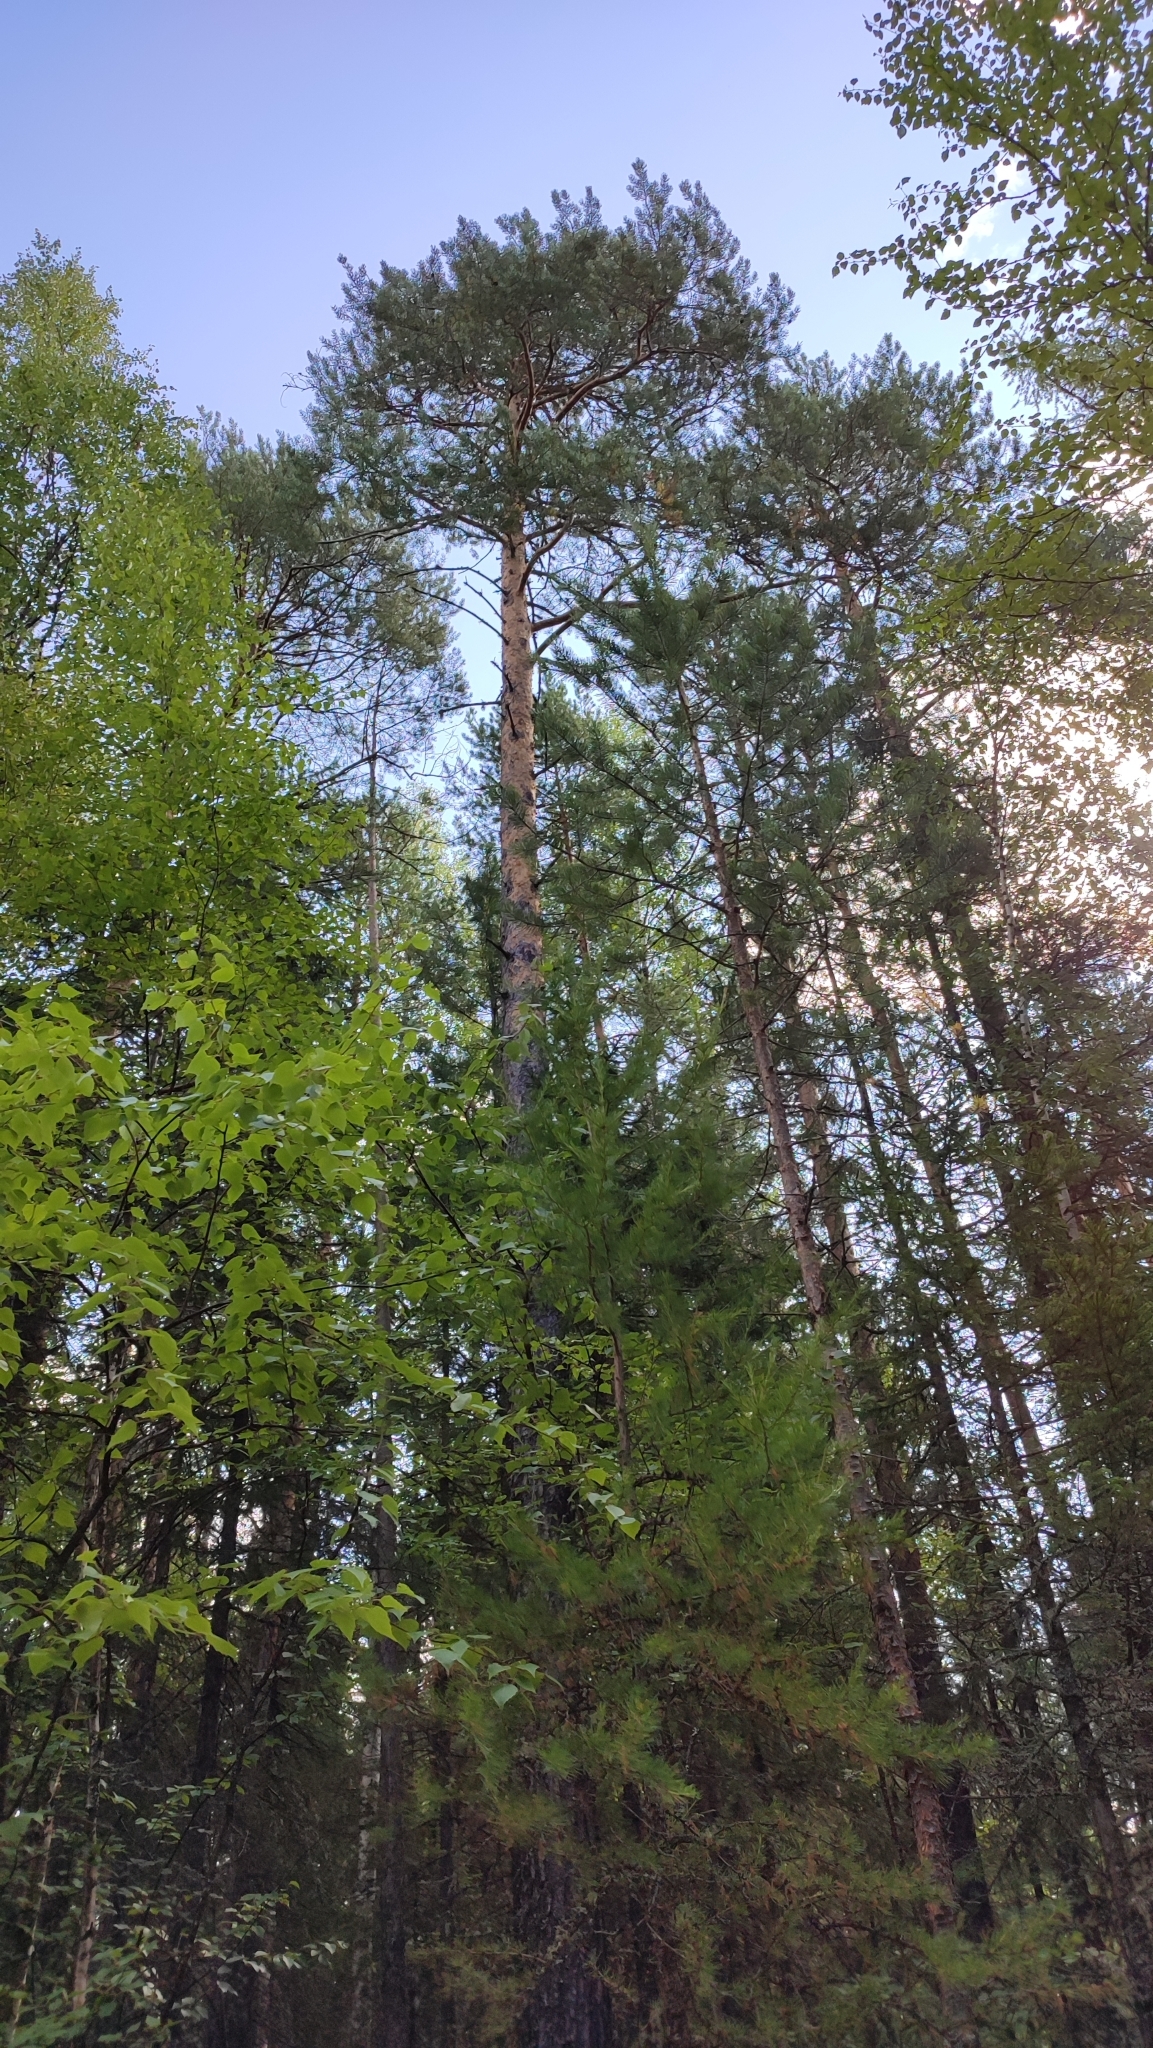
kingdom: Plantae
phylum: Tracheophyta
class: Pinopsida
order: Pinales
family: Pinaceae
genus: Pinus
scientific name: Pinus sylvestris
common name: Scots pine
